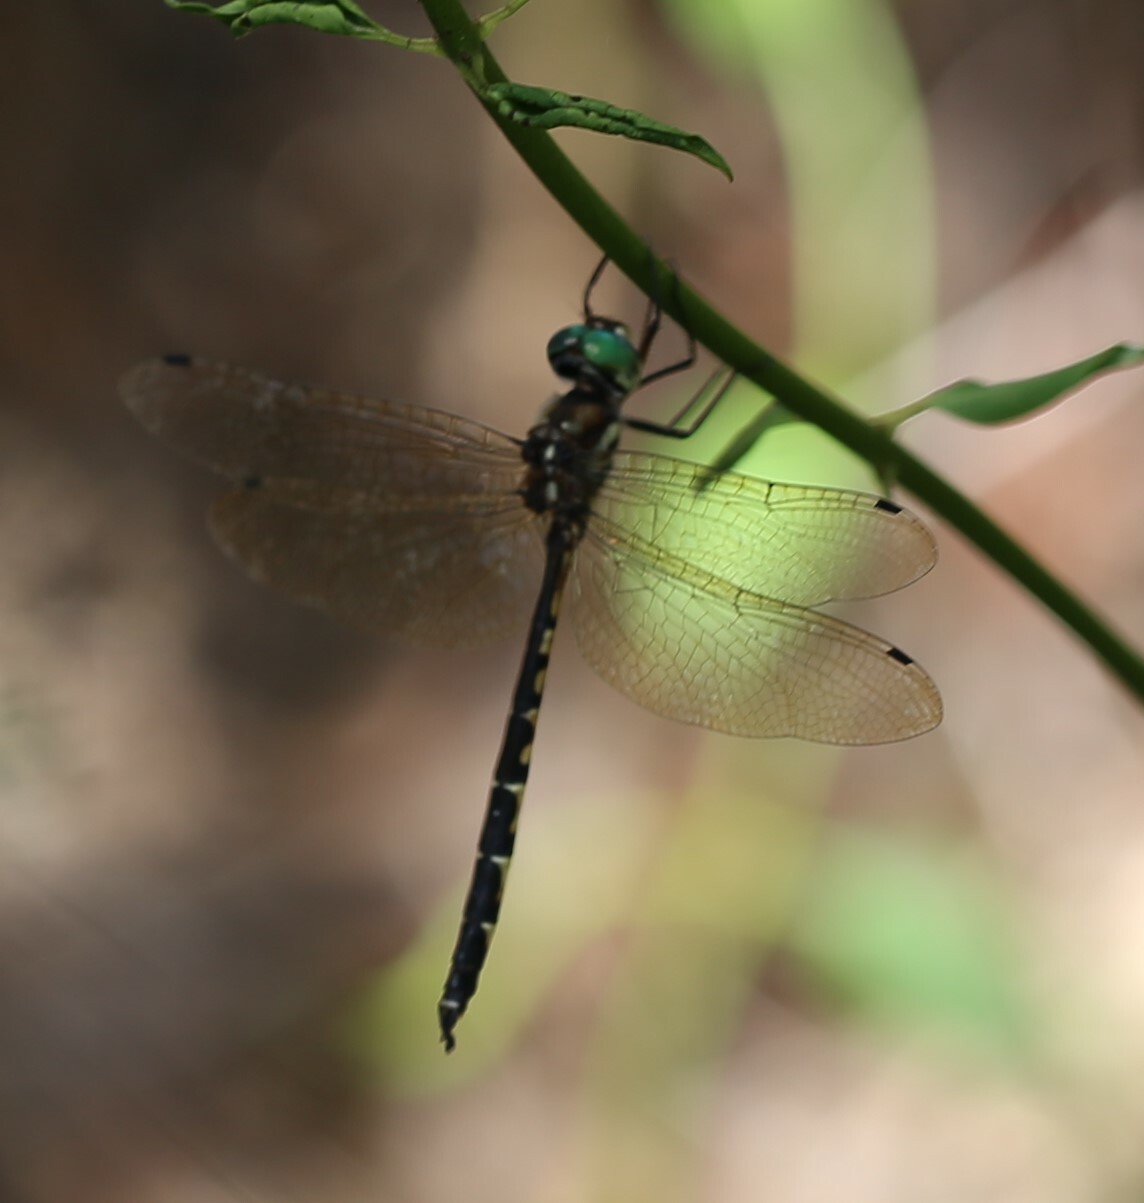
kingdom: Animalia
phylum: Arthropoda
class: Insecta
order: Odonata
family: Corduliidae
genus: Hemicordulia
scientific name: Hemicordulia australiae
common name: Sentry dragonfly
